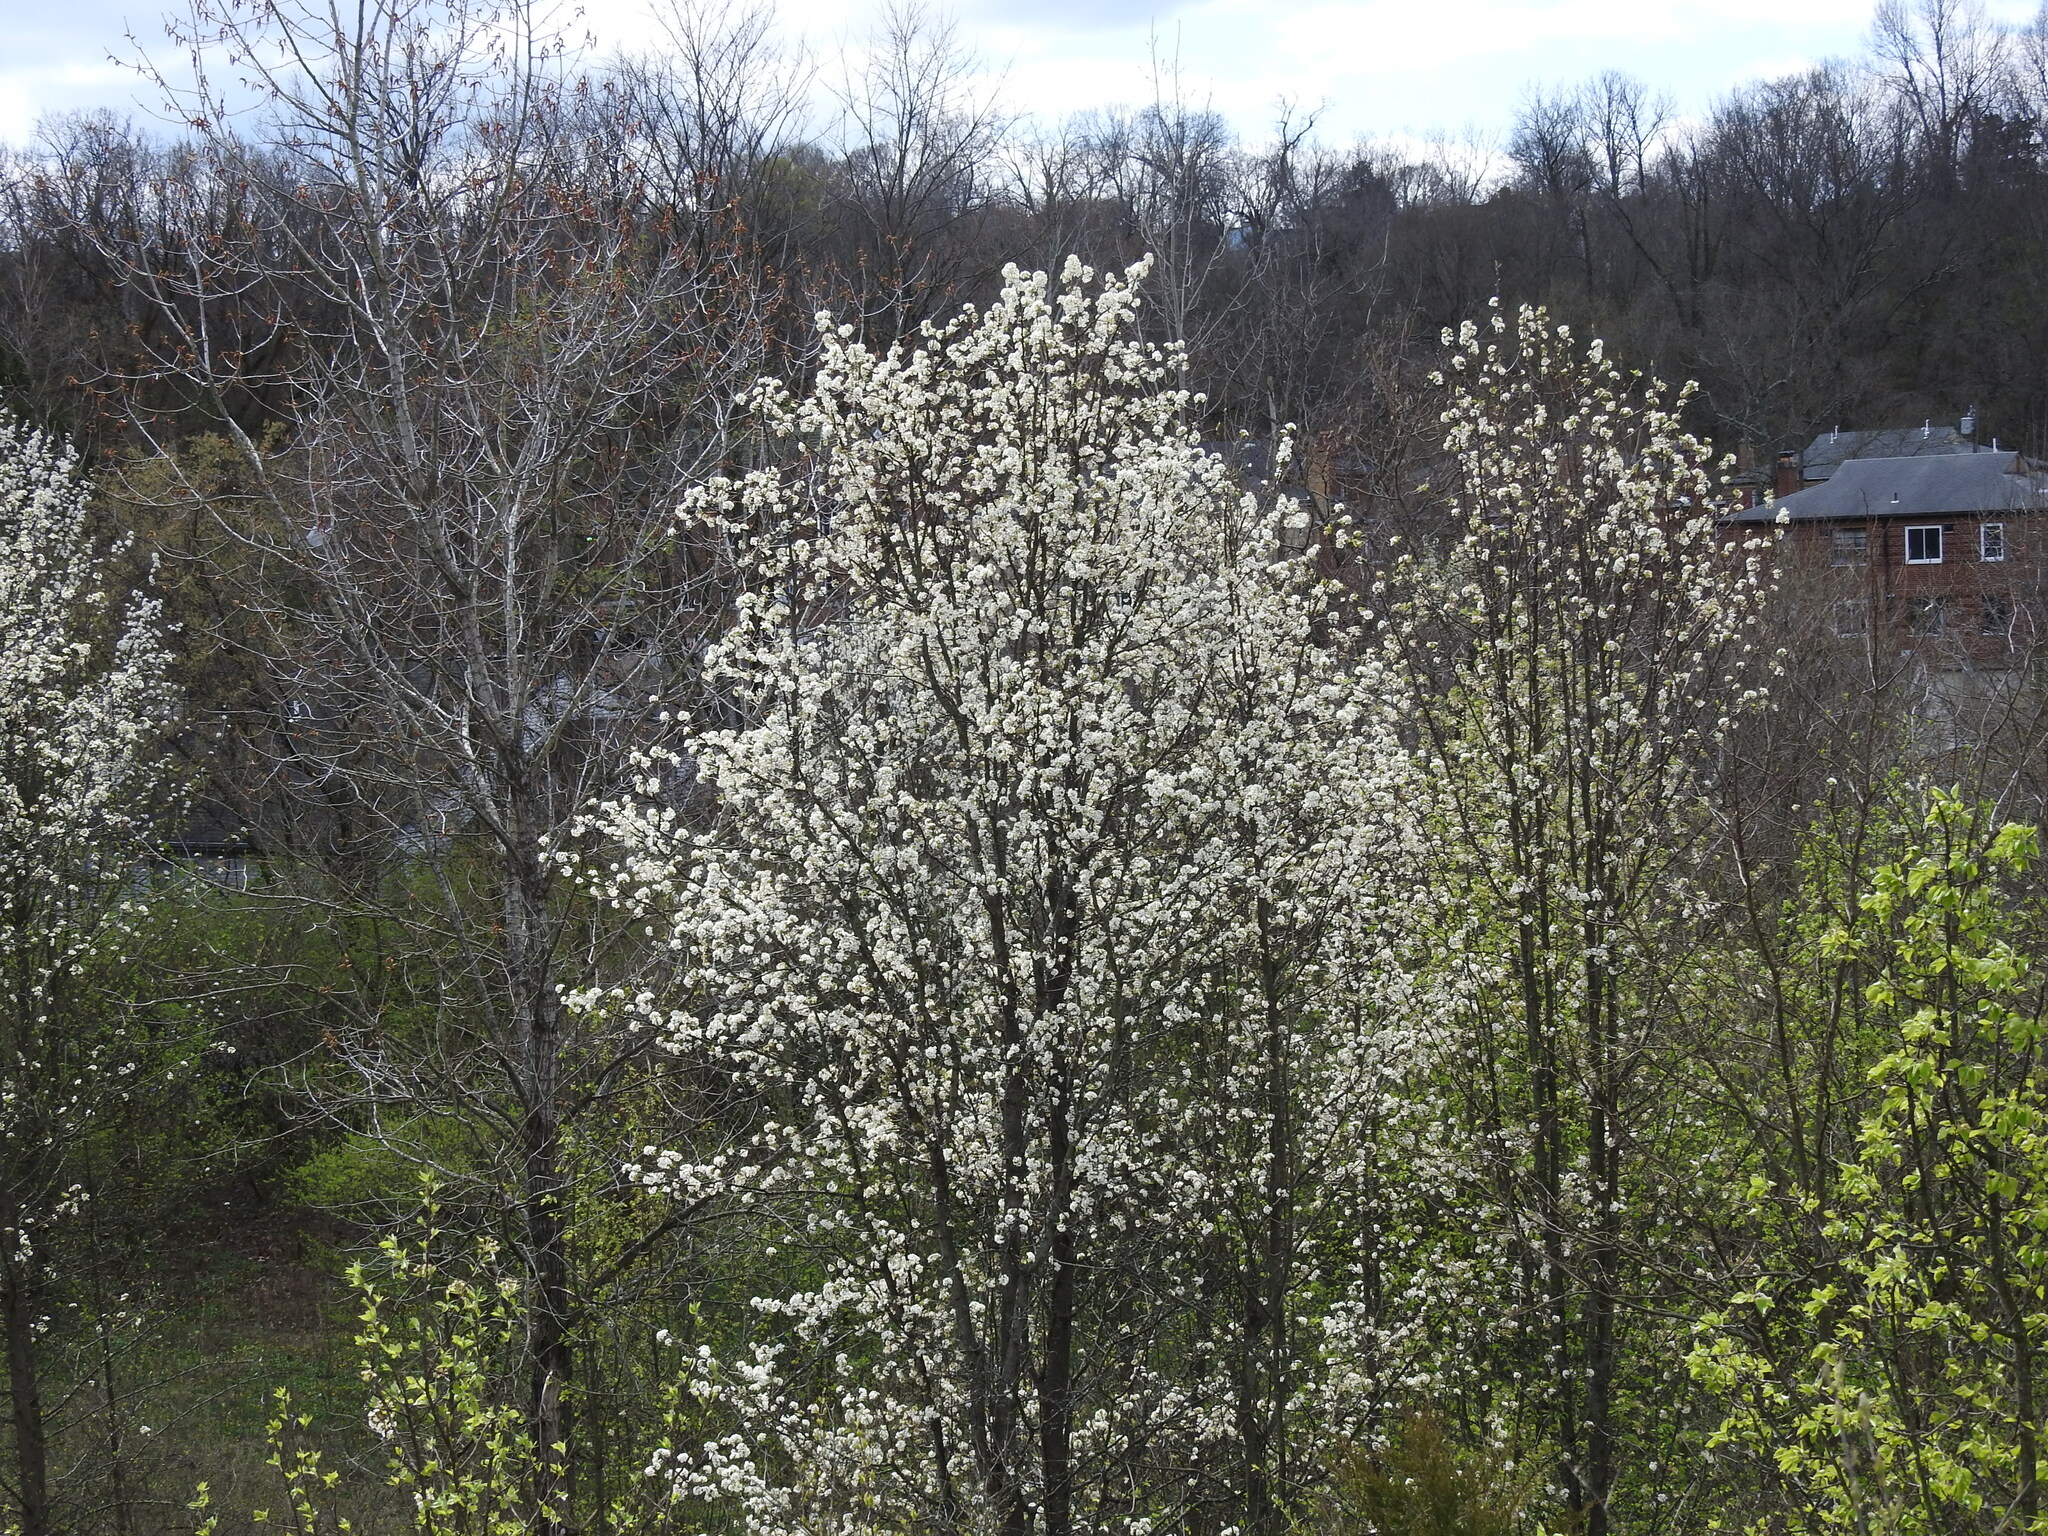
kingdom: Plantae
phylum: Tracheophyta
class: Magnoliopsida
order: Rosales
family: Rosaceae
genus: Pyrus
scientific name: Pyrus calleryana
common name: Callery pear
